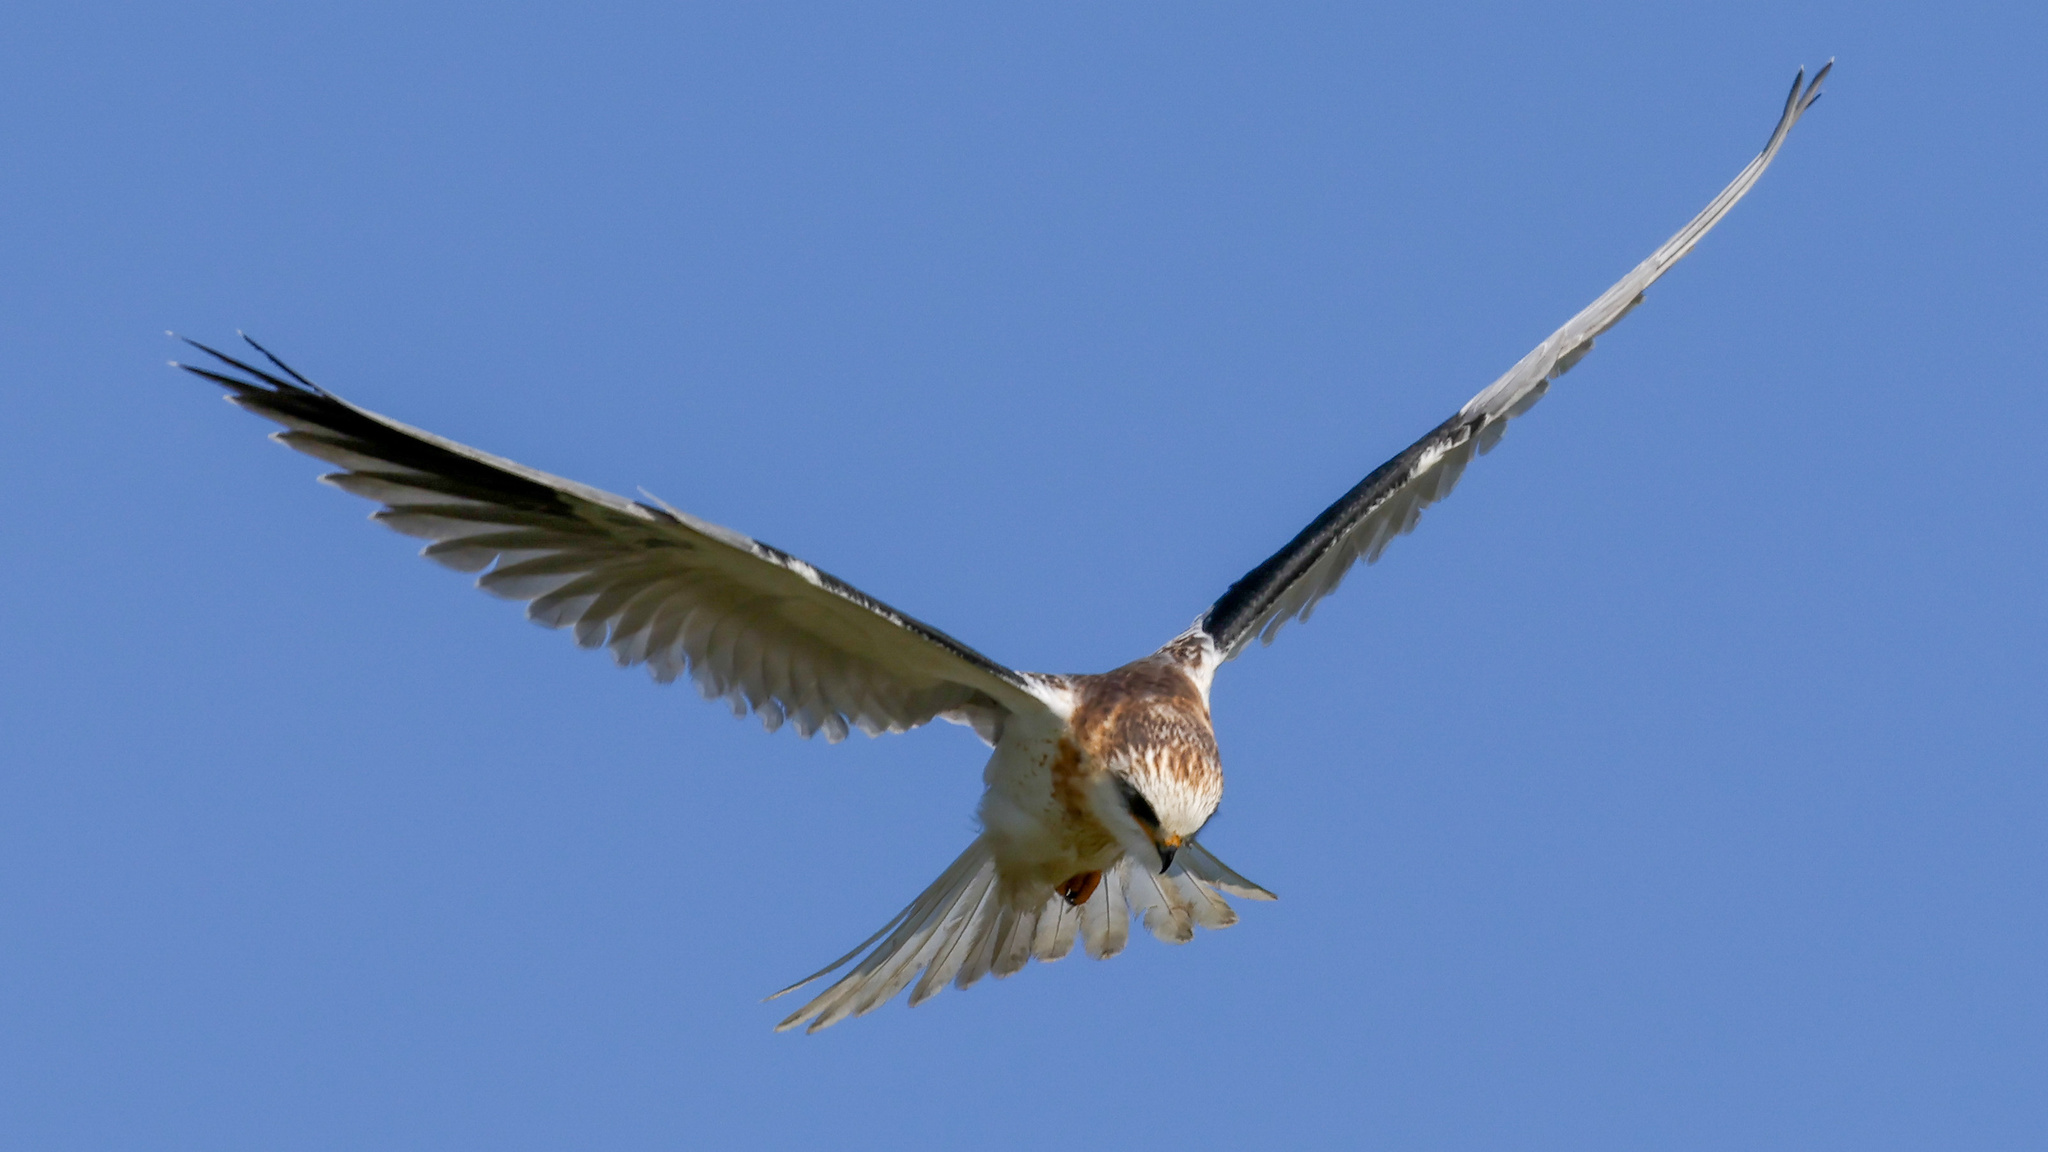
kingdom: Animalia
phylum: Chordata
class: Aves
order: Accipitriformes
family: Accipitridae
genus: Elanus
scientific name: Elanus leucurus
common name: White-tailed kite
